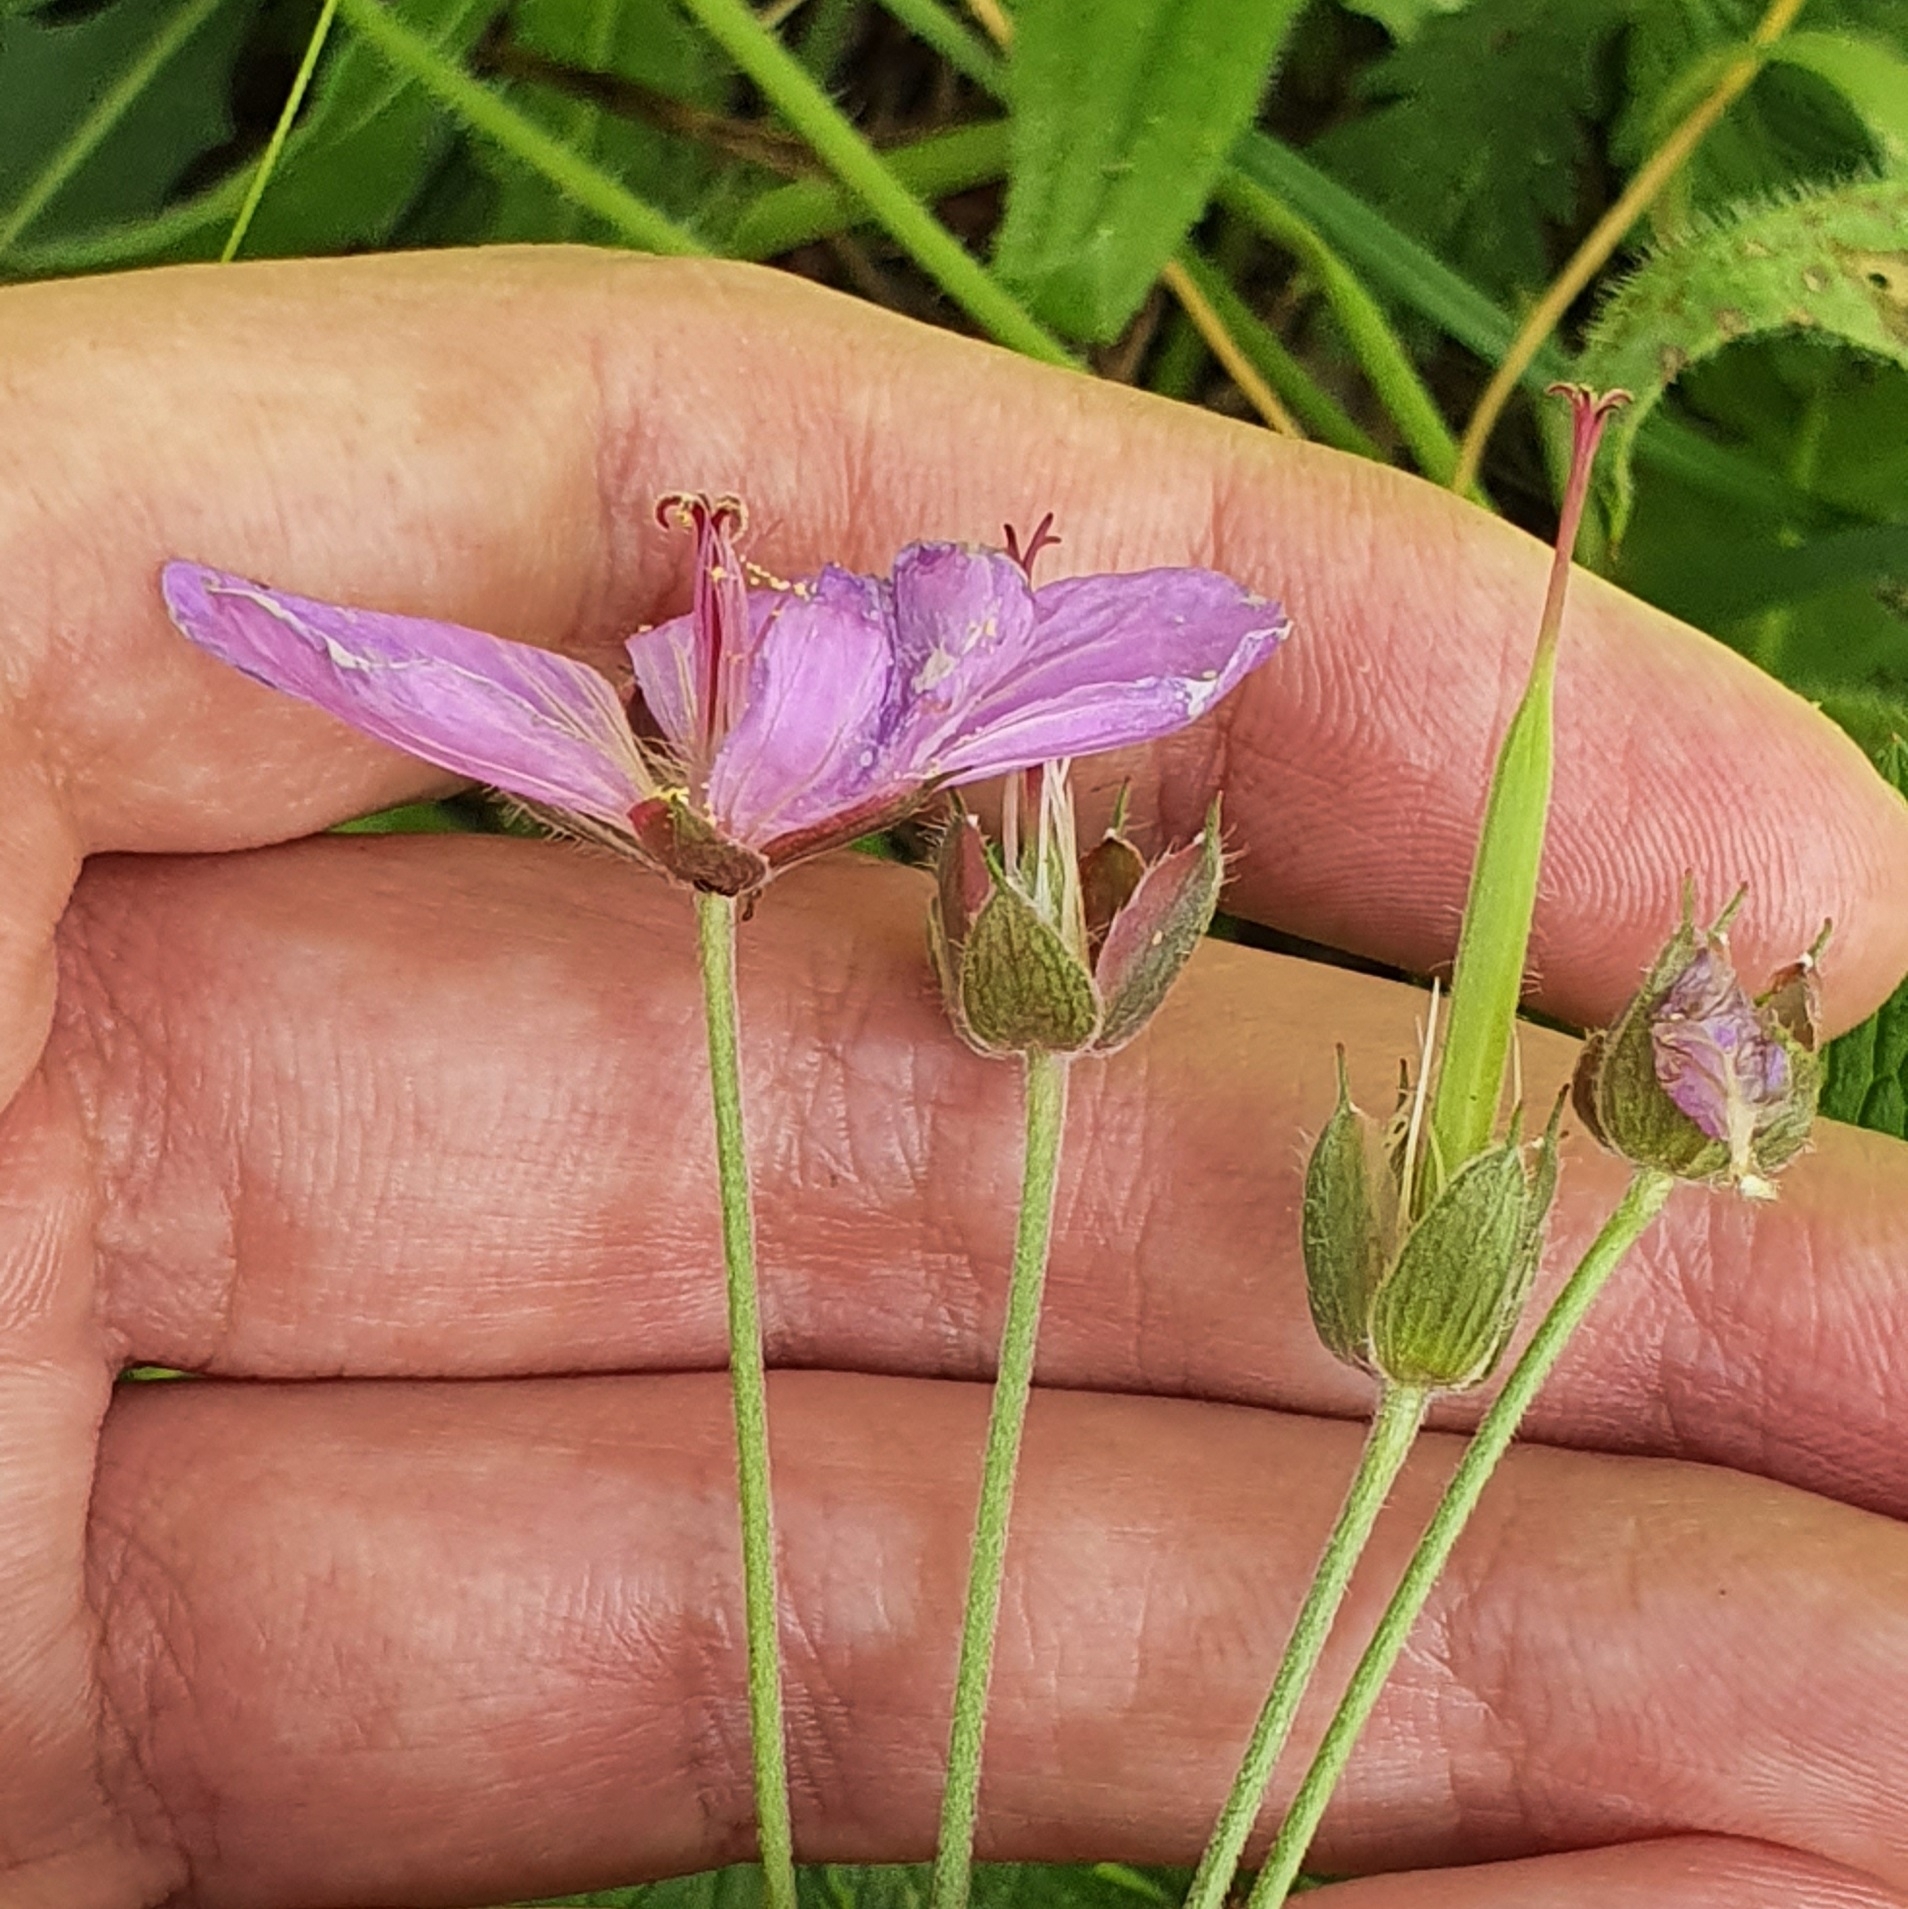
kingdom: Plantae
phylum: Tracheophyta
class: Magnoliopsida
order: Geraniales
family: Geraniaceae
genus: Geranium
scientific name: Geranium atlanticum
